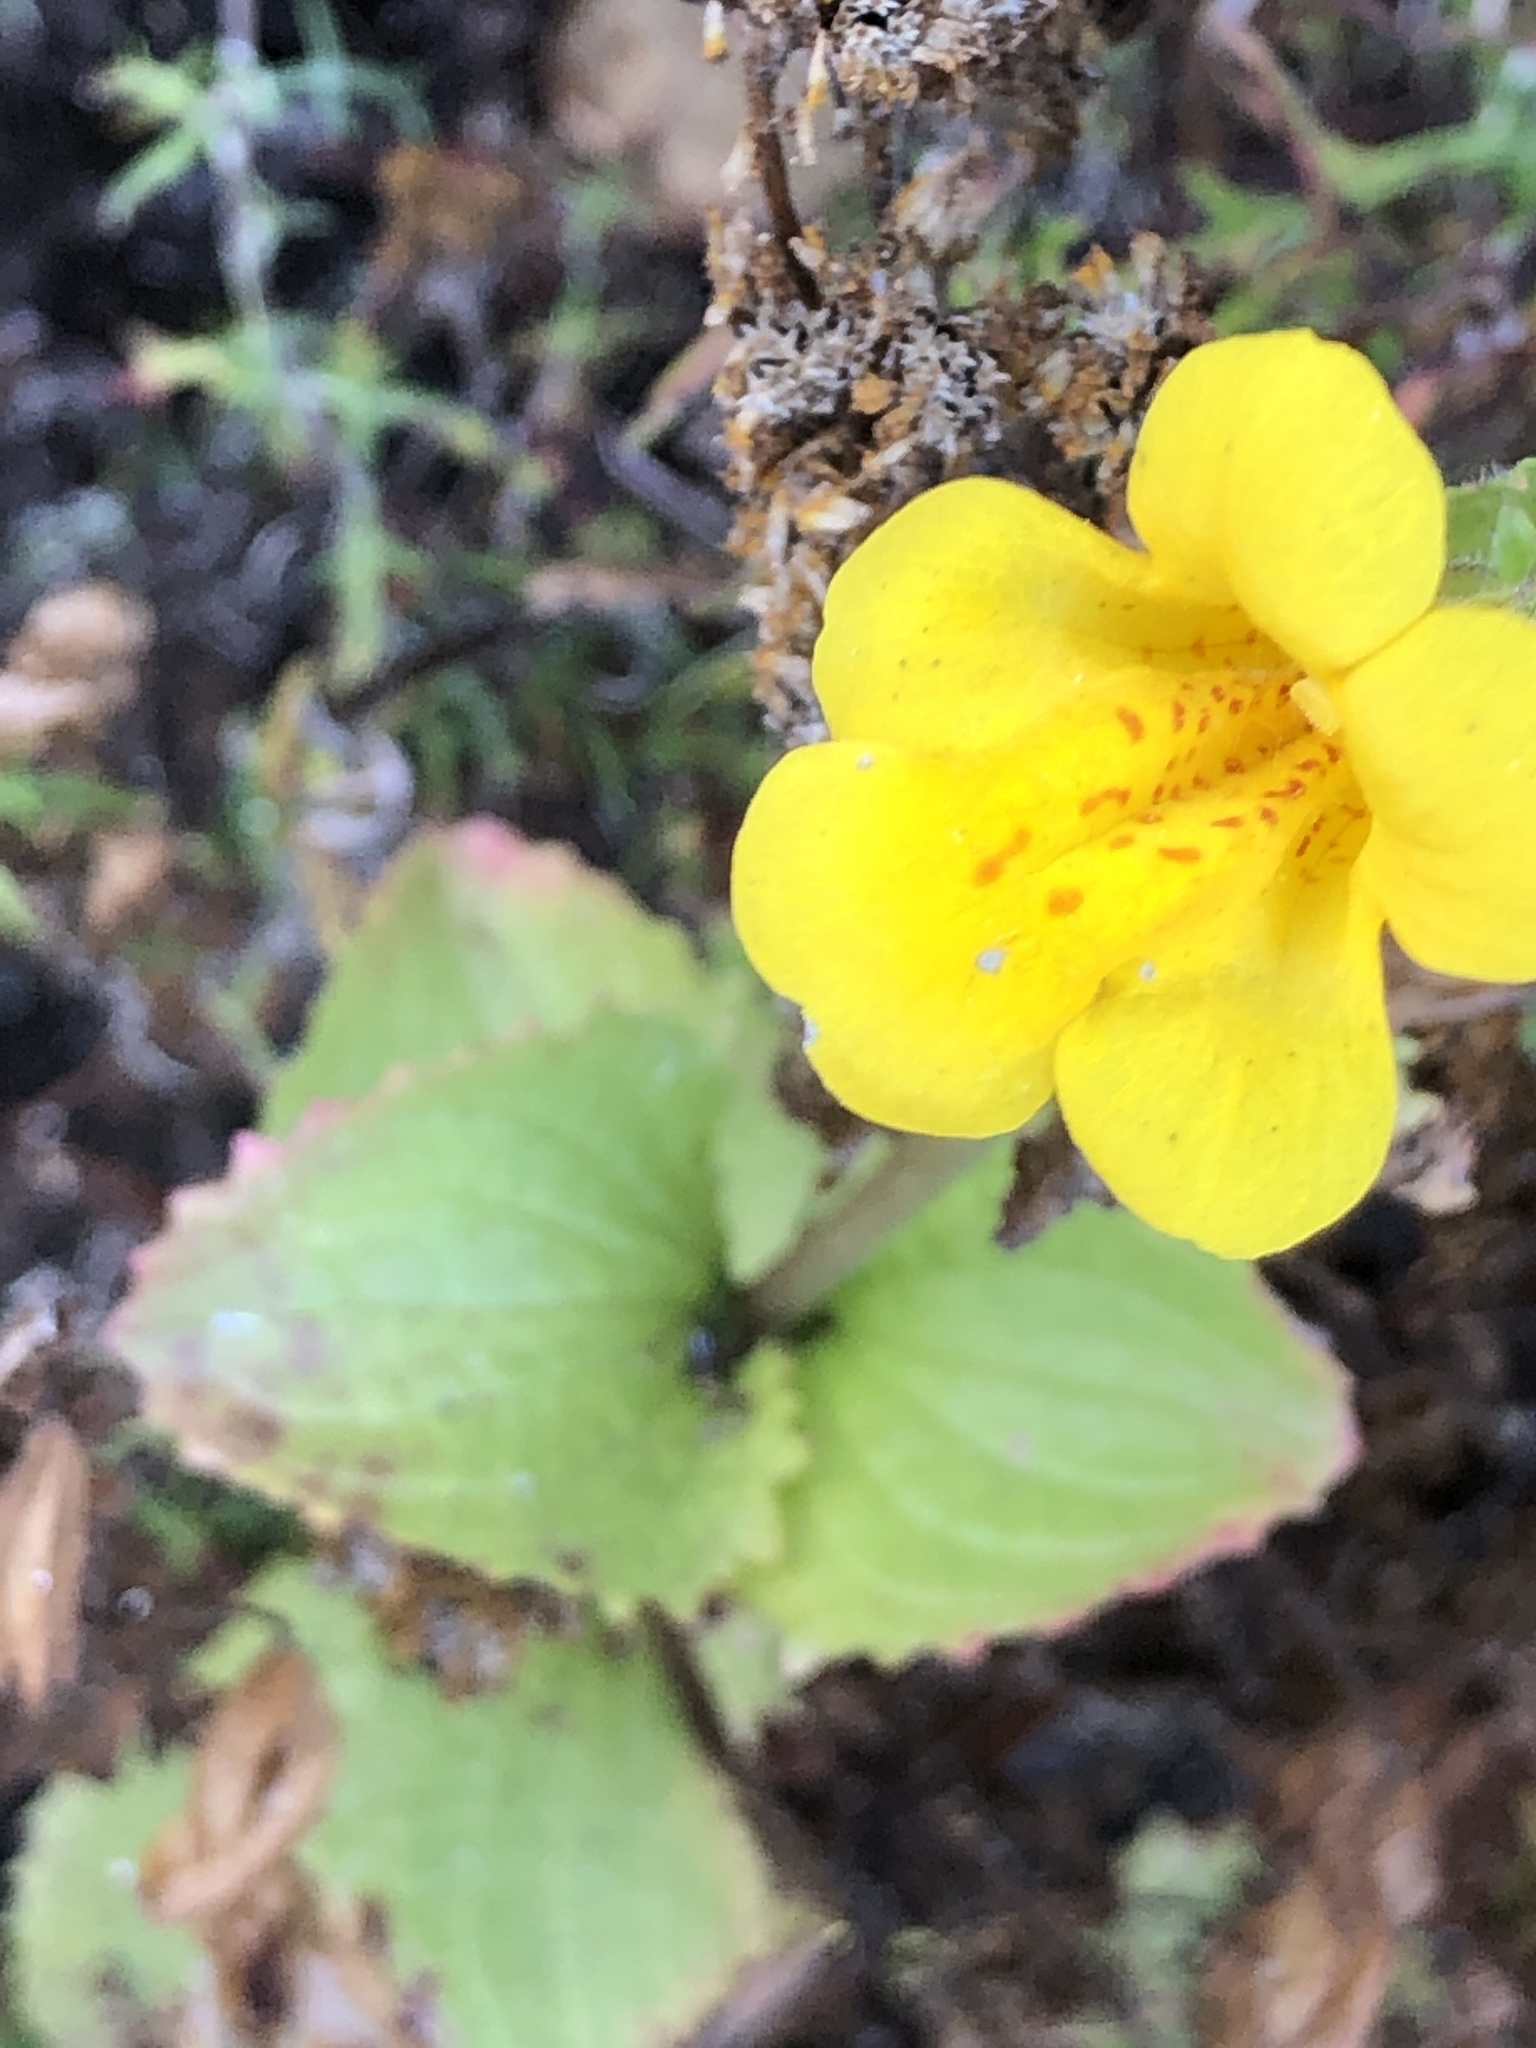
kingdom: Plantae
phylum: Tracheophyta
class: Magnoliopsida
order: Lamiales
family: Phrymaceae
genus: Erythranthe
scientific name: Erythranthe guttata
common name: Monkeyflower
